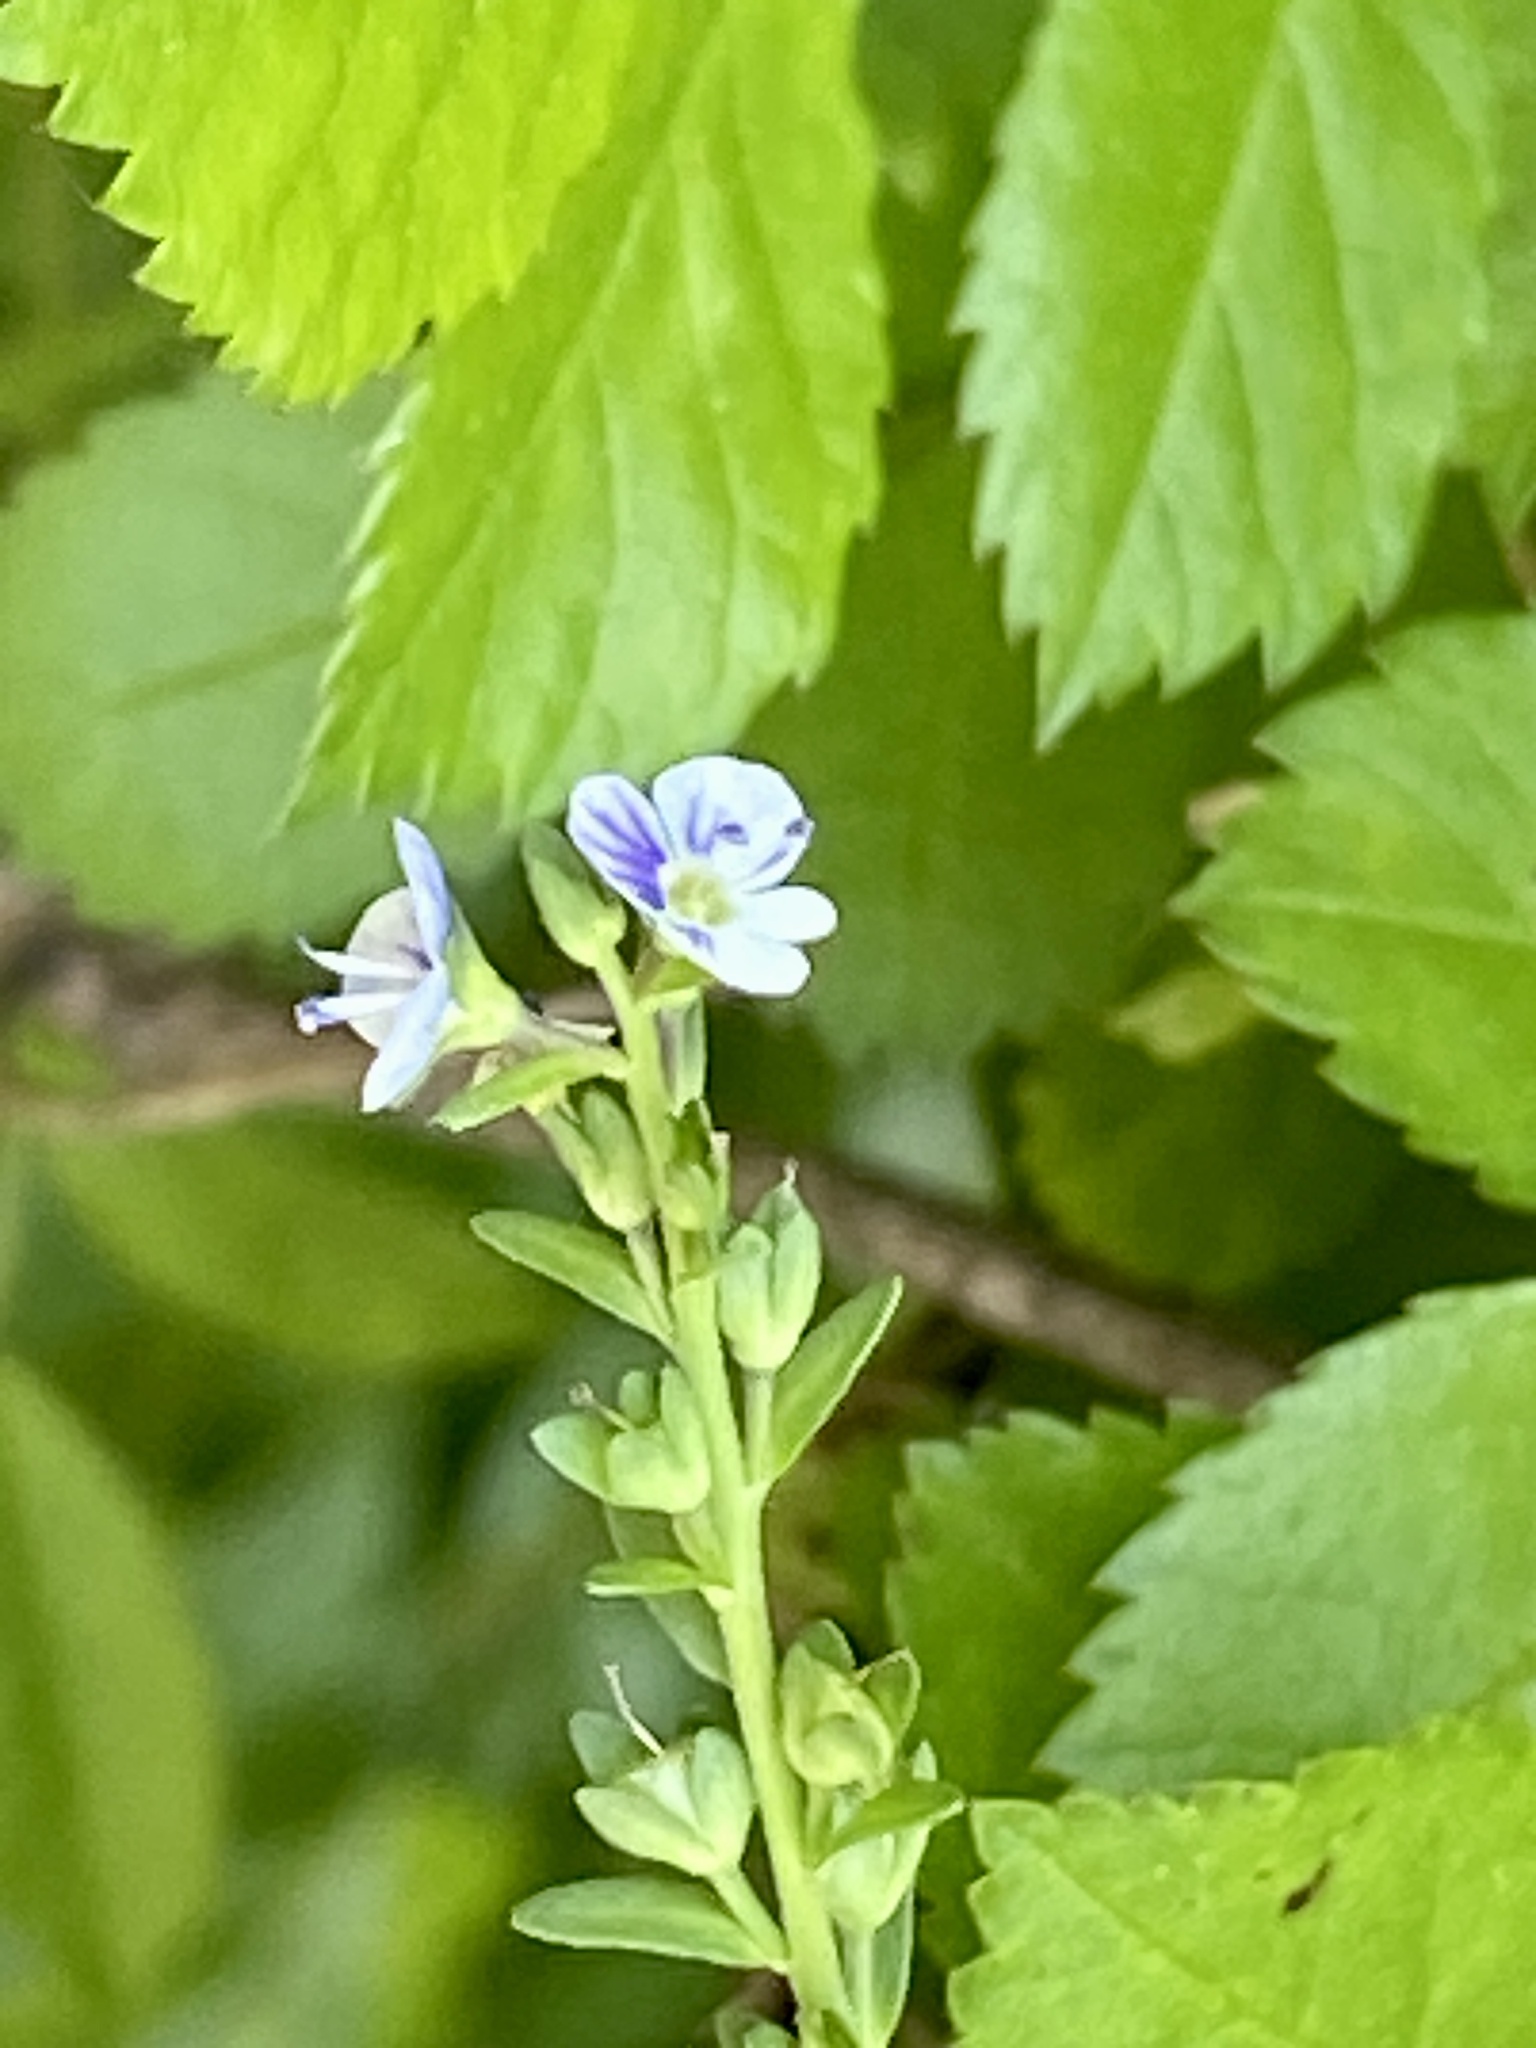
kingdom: Plantae
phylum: Tracheophyta
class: Magnoliopsida
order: Lamiales
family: Plantaginaceae
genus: Veronica
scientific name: Veronica serpyllifolia
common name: Thyme-leaved speedwell
